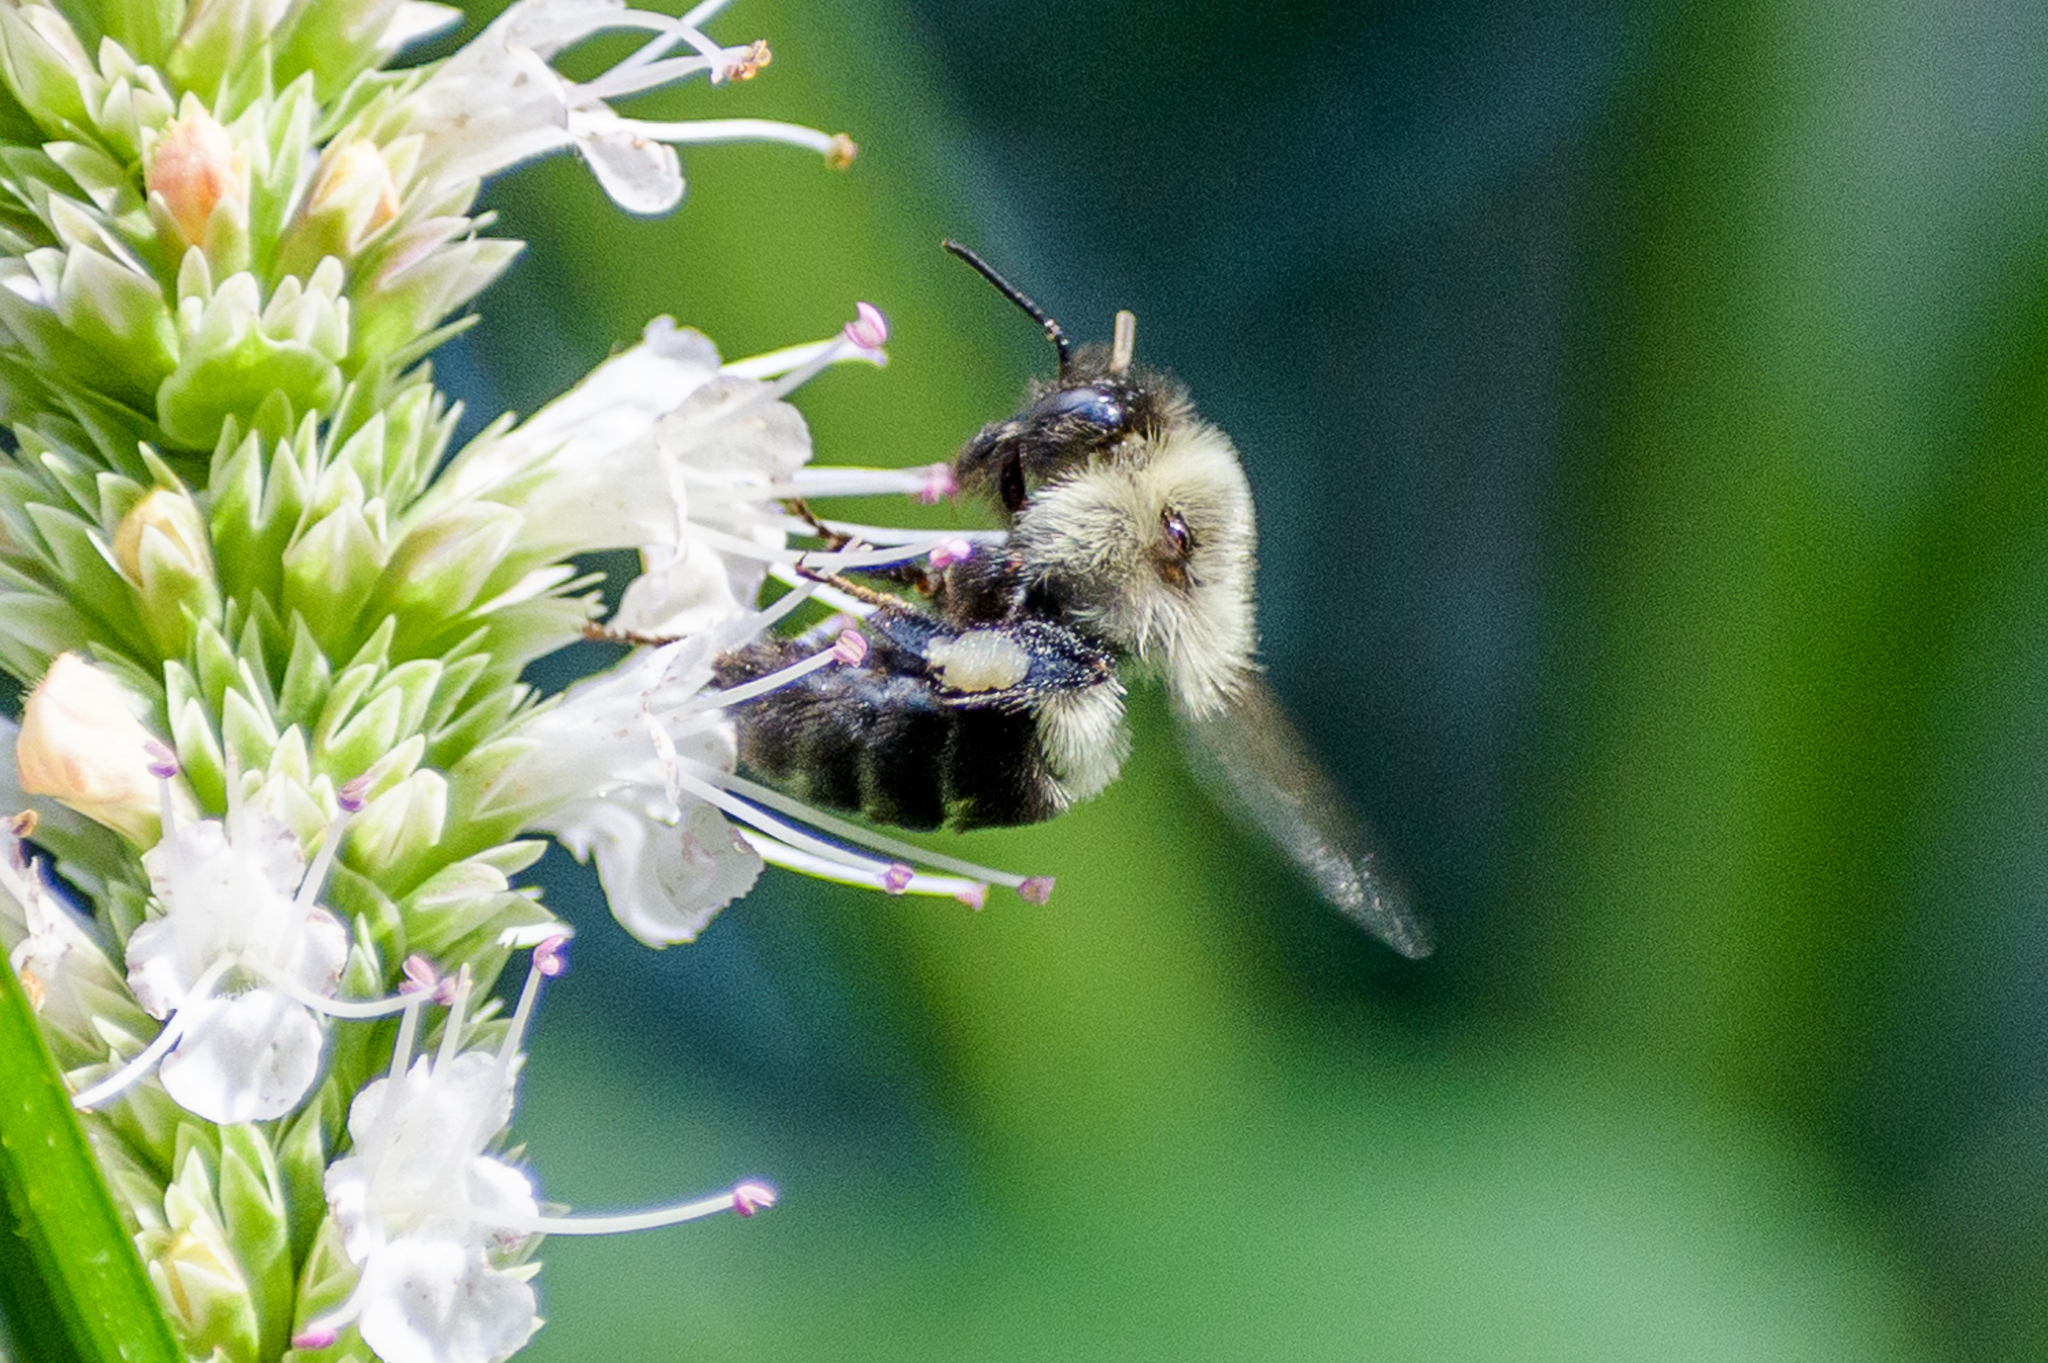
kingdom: Animalia
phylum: Arthropoda
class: Insecta
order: Hymenoptera
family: Apidae
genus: Bombus
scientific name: Bombus impatiens
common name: Common eastern bumble bee
